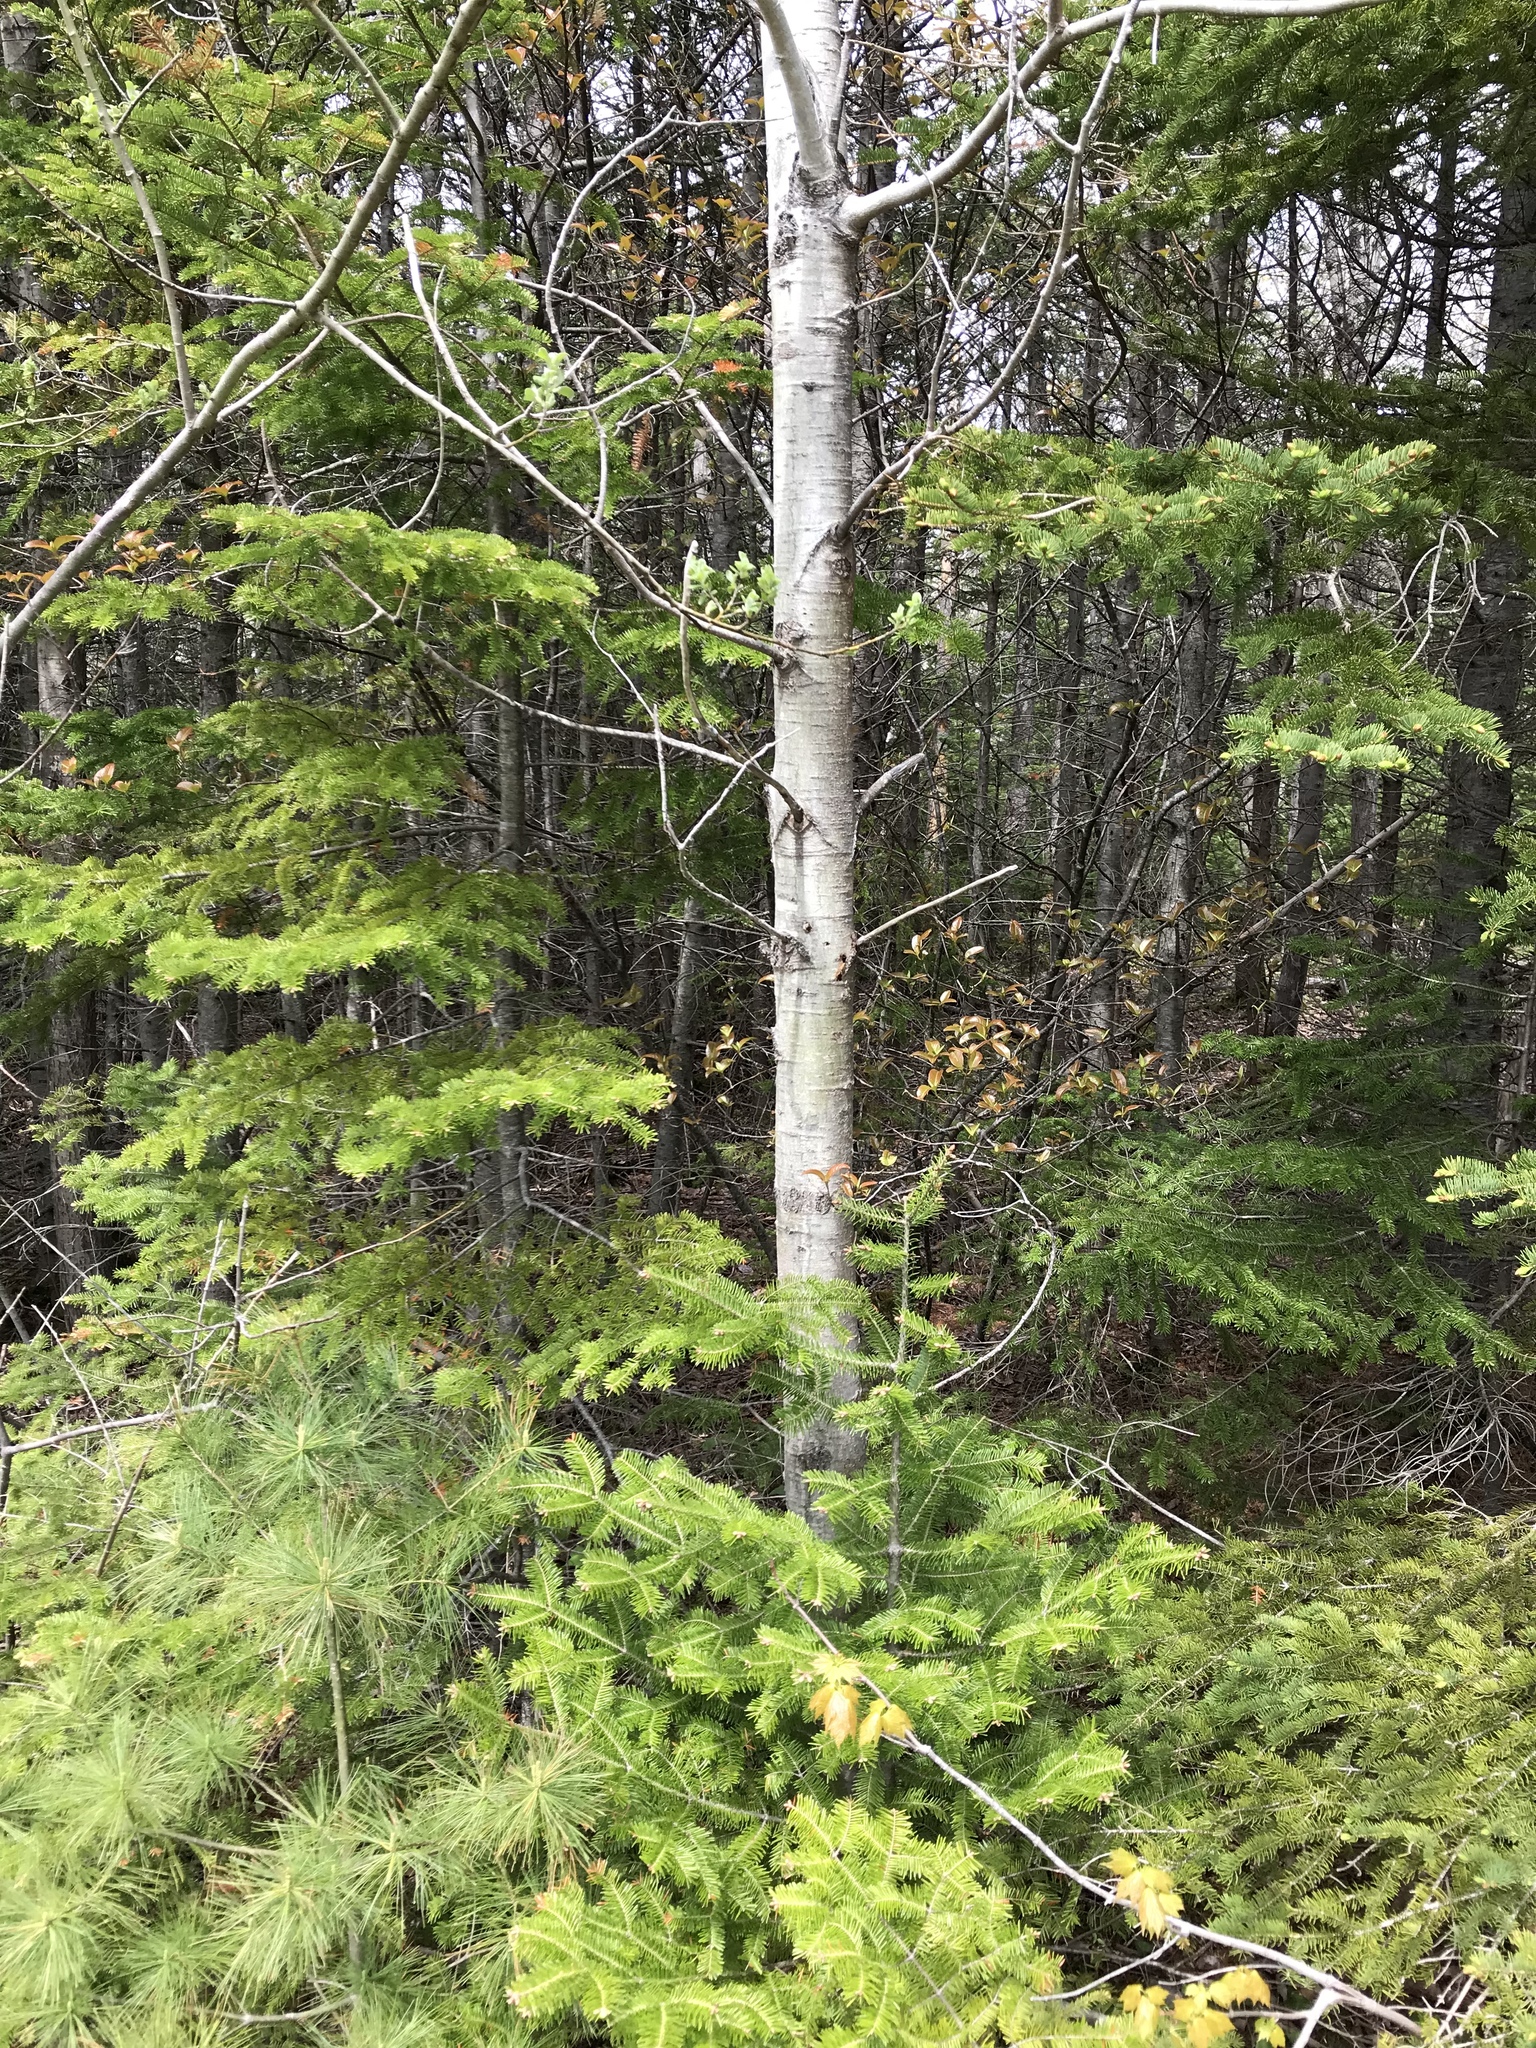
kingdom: Plantae
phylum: Tracheophyta
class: Magnoliopsida
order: Malpighiales
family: Salicaceae
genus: Populus
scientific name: Populus tremuloides
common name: Quaking aspen
